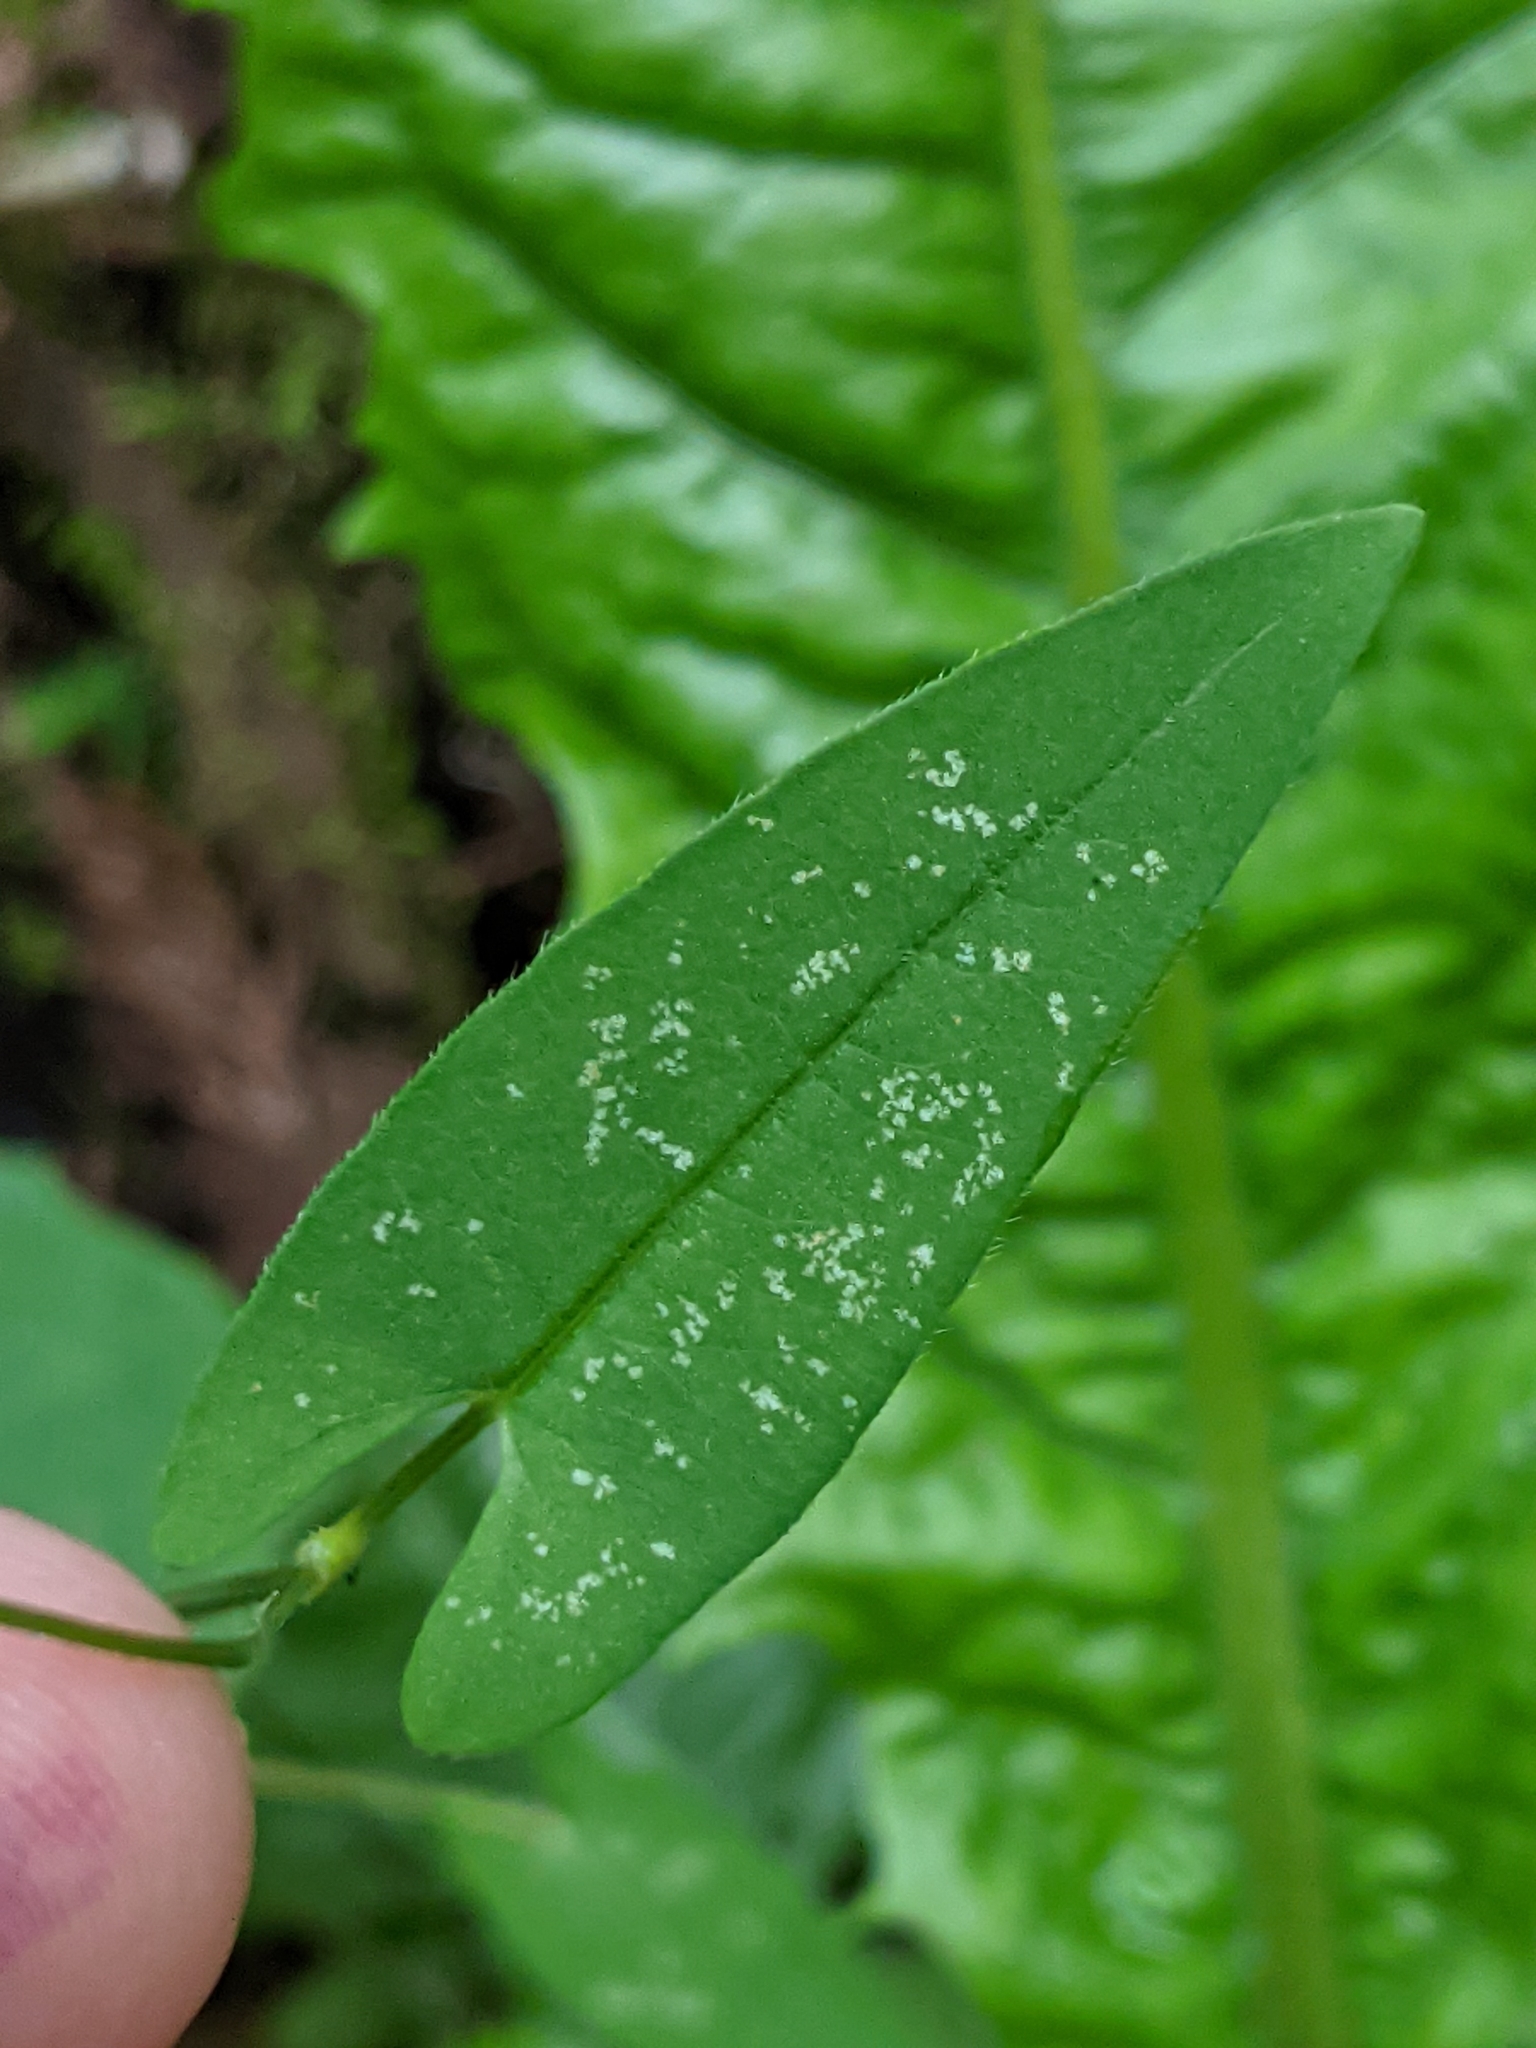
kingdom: Plantae
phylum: Tracheophyta
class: Magnoliopsida
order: Caryophyllales
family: Polygonaceae
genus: Persicaria
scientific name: Persicaria sagittata
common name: American tearthumb
